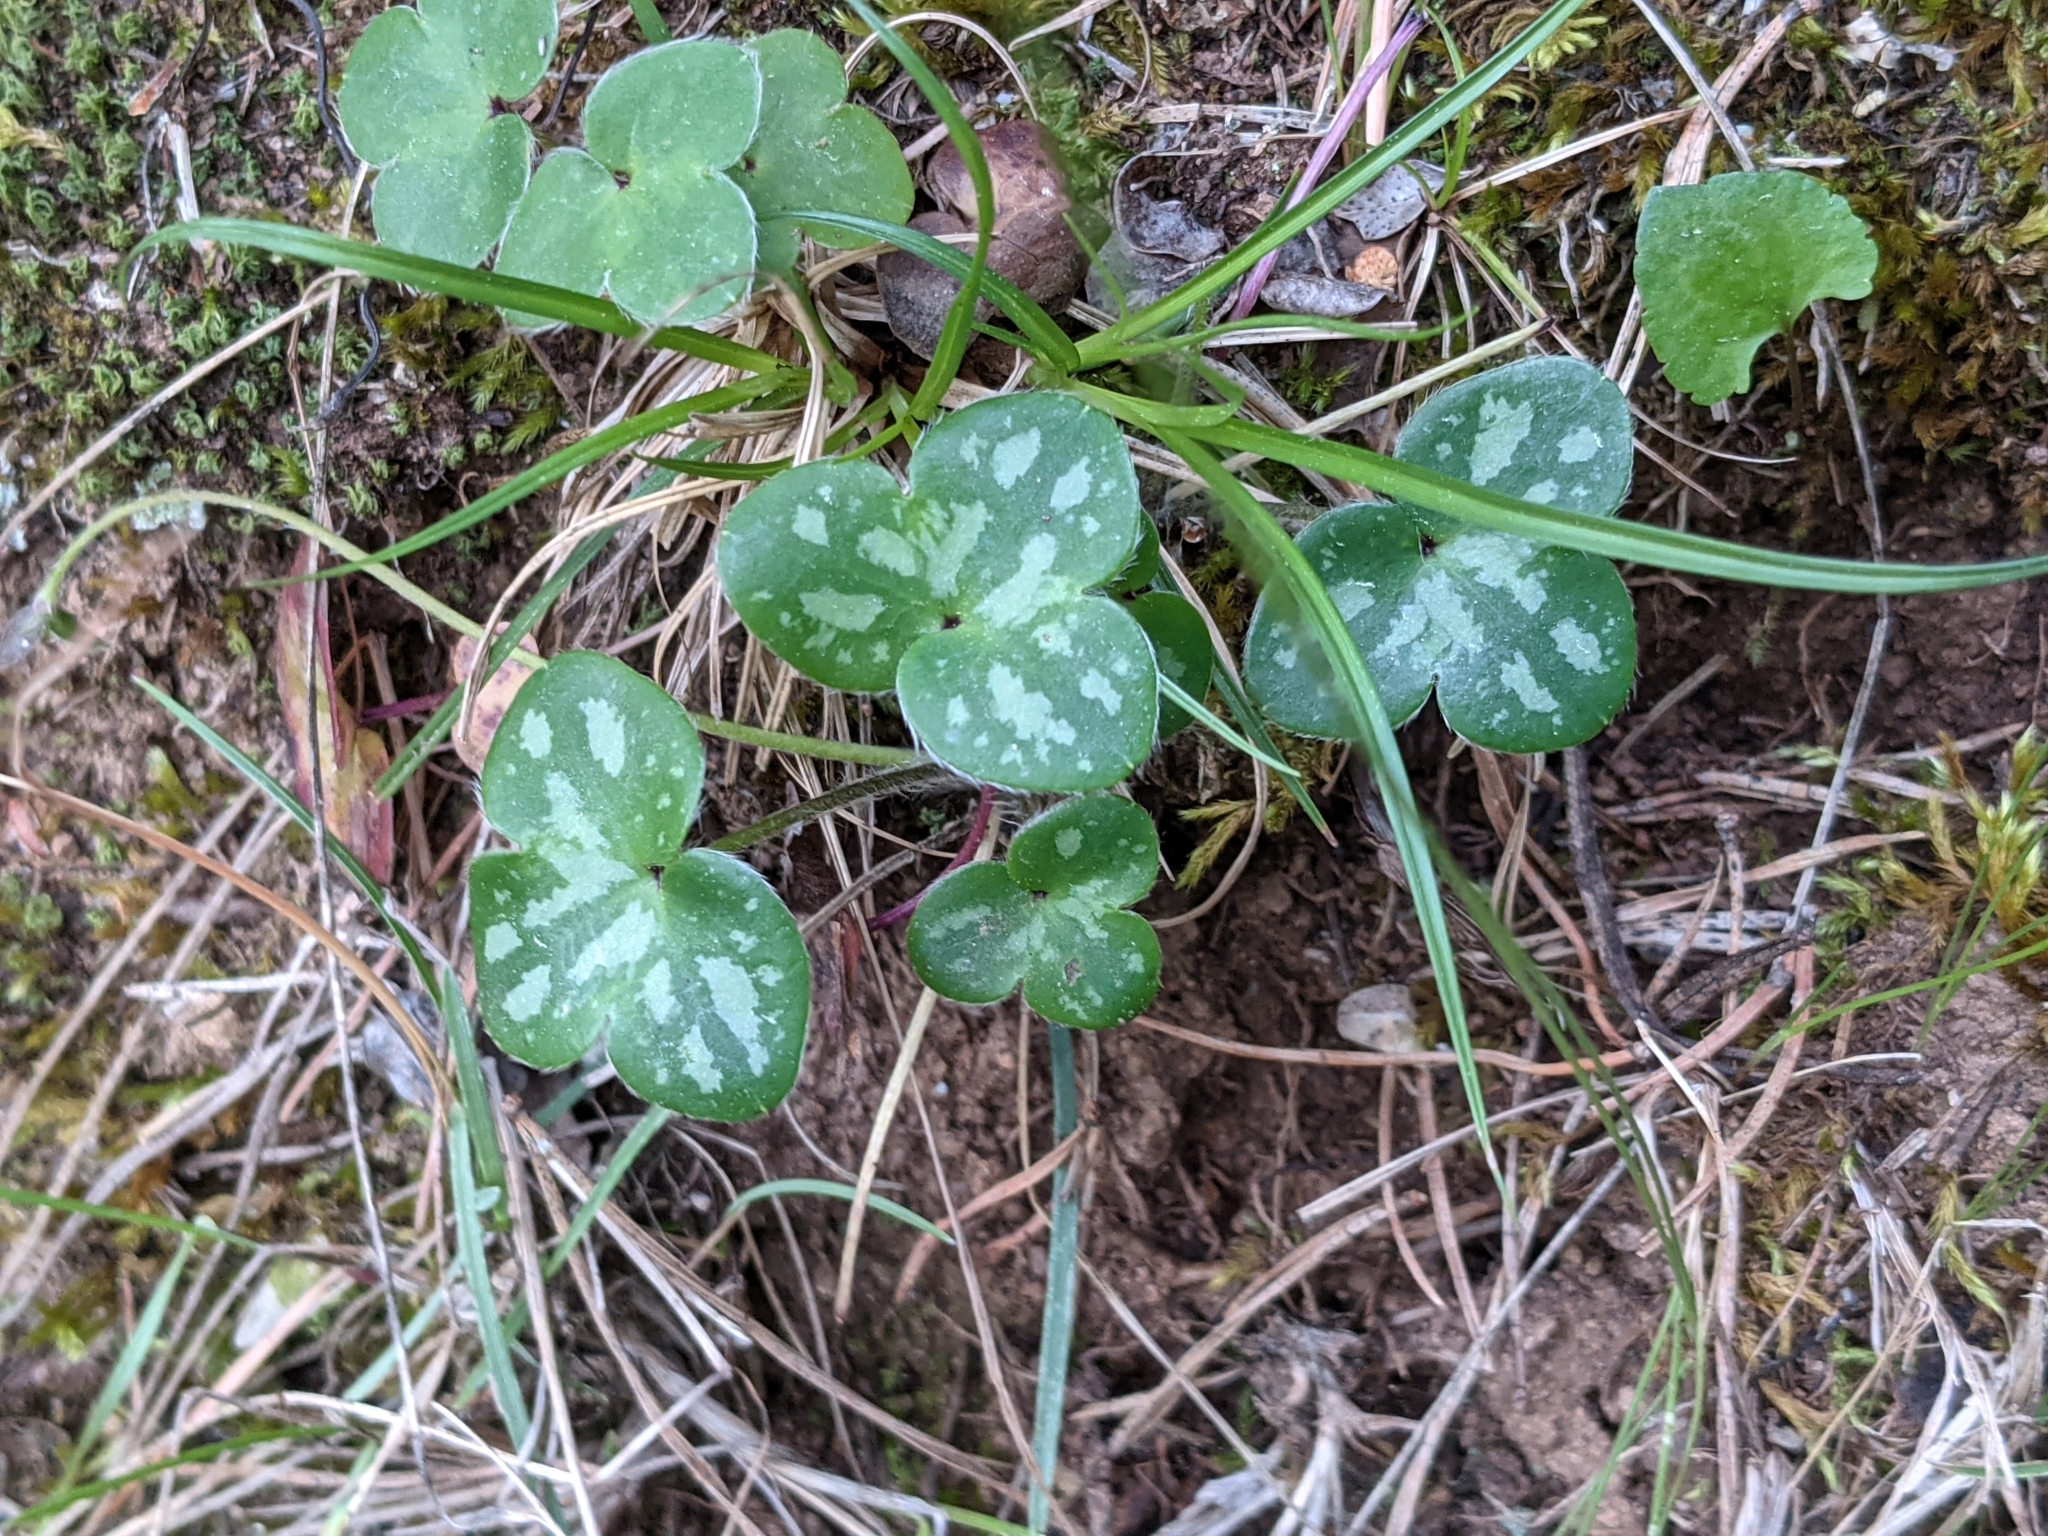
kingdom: Plantae
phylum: Tracheophyta
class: Magnoliopsida
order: Ranunculales
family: Ranunculaceae
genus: Hepatica
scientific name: Hepatica nobilis
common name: Liverleaf
